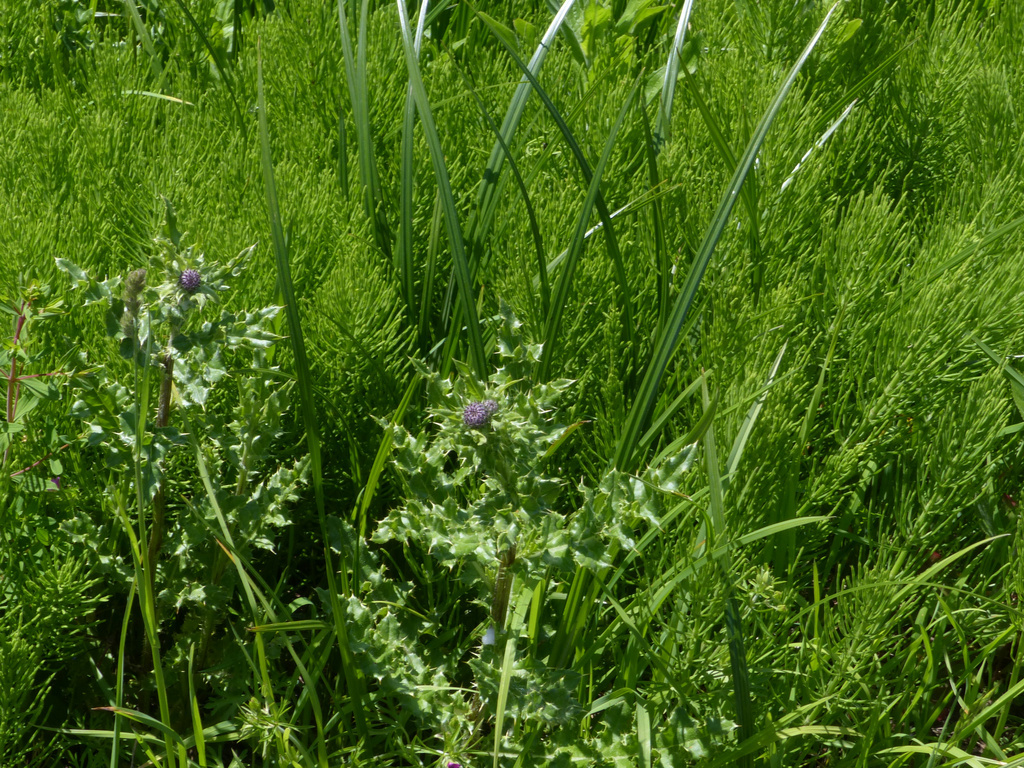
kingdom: Plantae
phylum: Tracheophyta
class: Magnoliopsida
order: Asterales
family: Asteraceae
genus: Cirsium
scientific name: Cirsium arvense
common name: Creeping thistle
